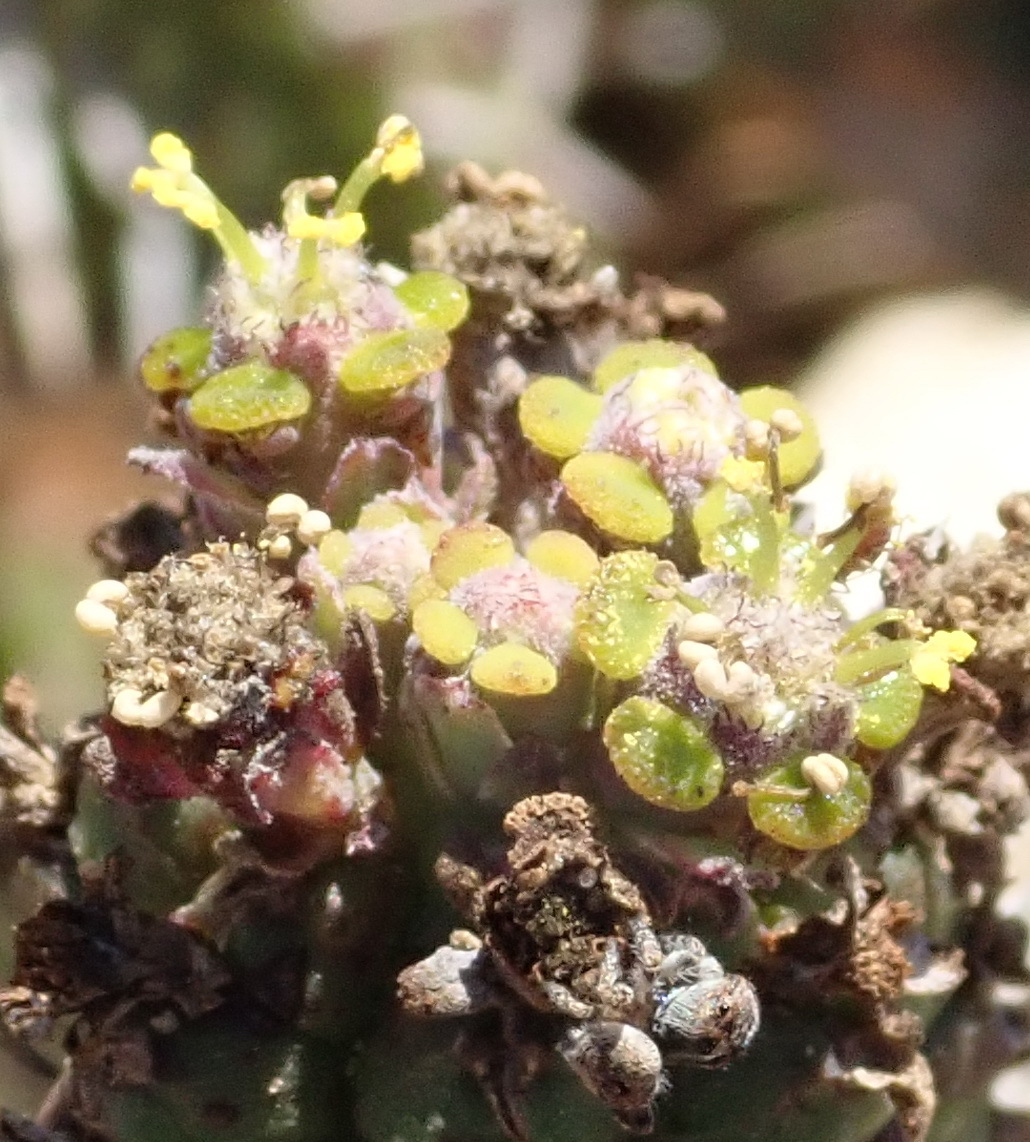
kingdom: Plantae
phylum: Tracheophyta
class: Magnoliopsida
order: Malpighiales
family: Euphorbiaceae
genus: Euphorbia
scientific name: Euphorbia mammillaris
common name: Corkscrew
